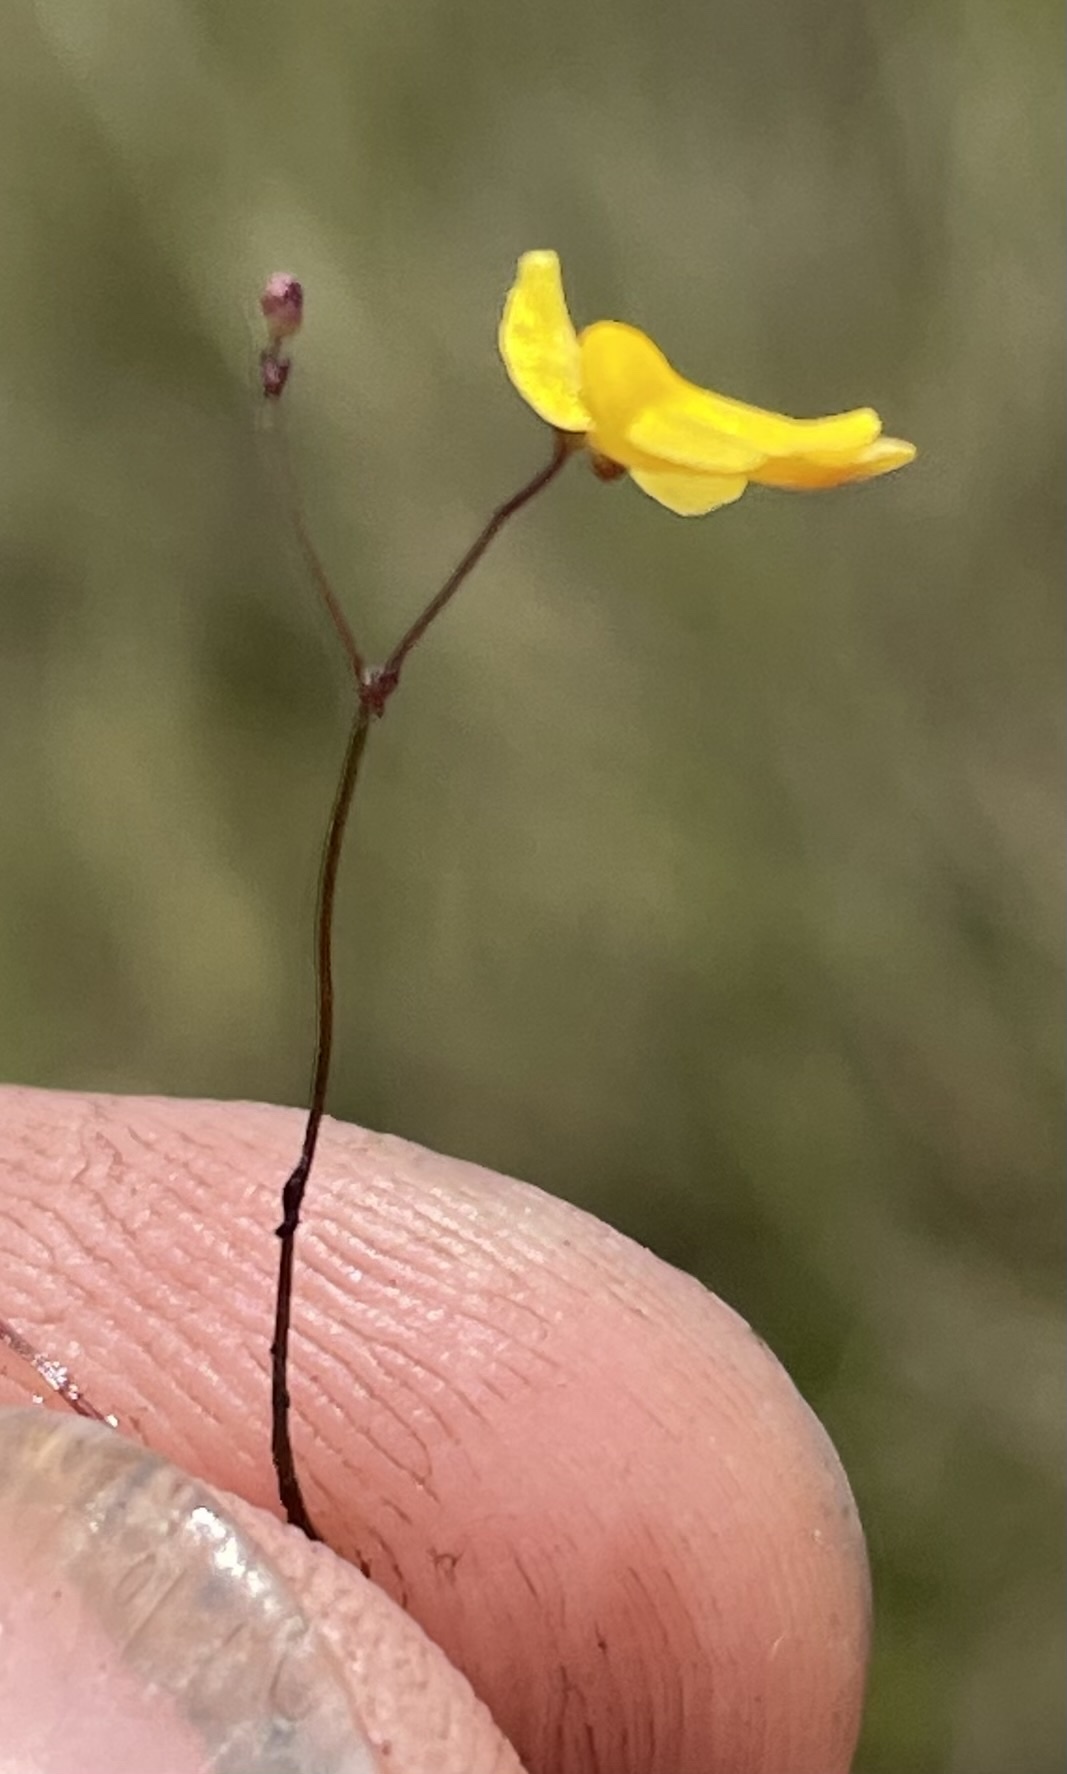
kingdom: Plantae
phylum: Tracheophyta
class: Magnoliopsida
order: Lamiales
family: Lentibulariaceae
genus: Utricularia
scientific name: Utricularia subulata
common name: Tiny bladderwort
